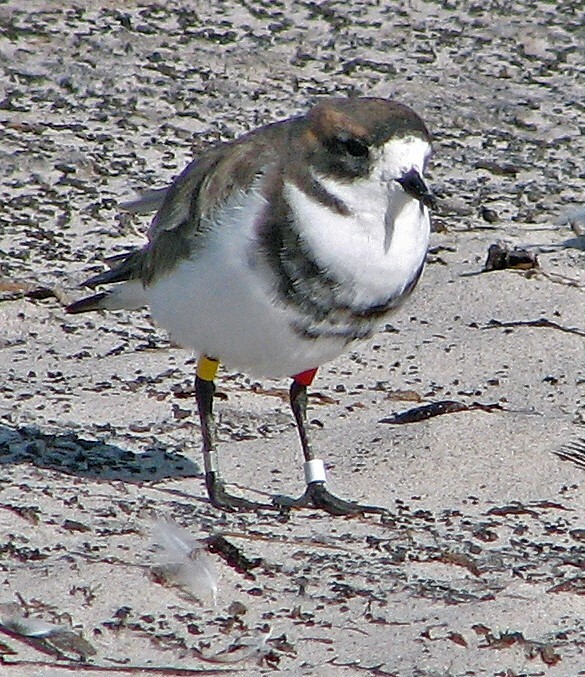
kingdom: Animalia
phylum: Chordata
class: Aves
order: Charadriiformes
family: Charadriidae
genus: Anarhynchus
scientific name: Anarhynchus
